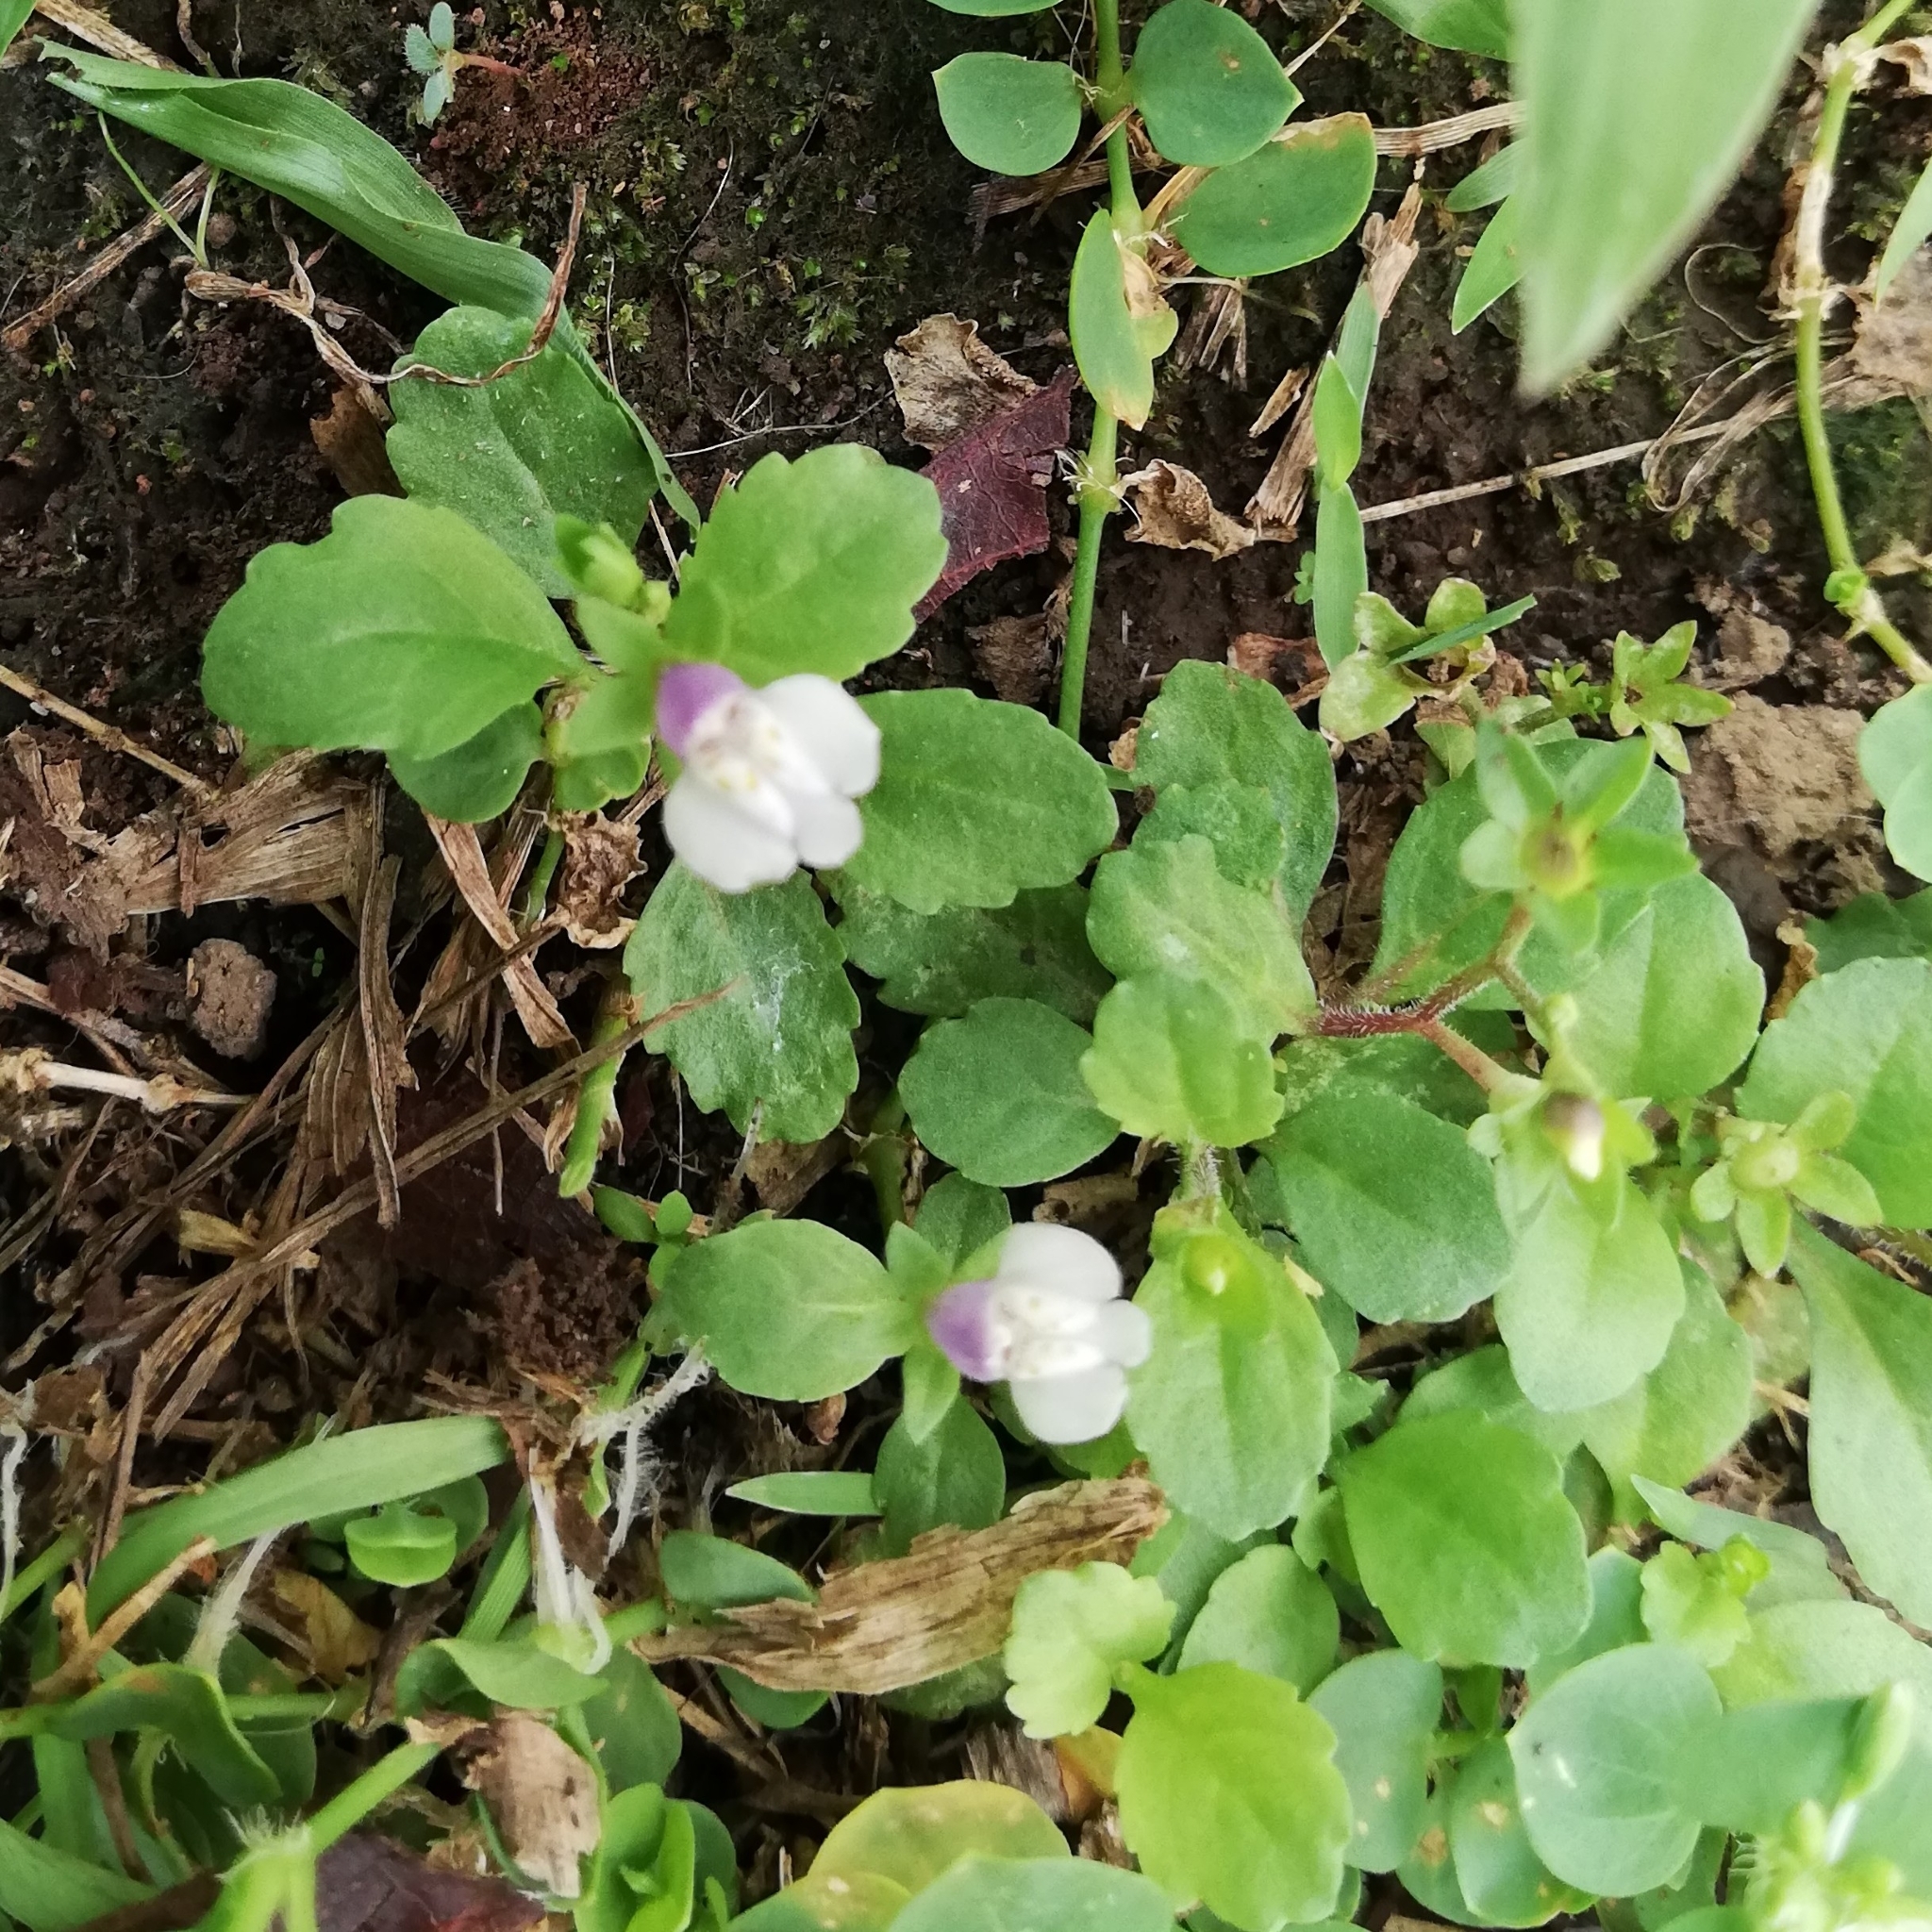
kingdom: Plantae
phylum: Tracheophyta
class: Magnoliopsida
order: Lamiales
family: Mazaceae
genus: Mazus
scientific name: Mazus pumilus
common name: Japanese mazus
